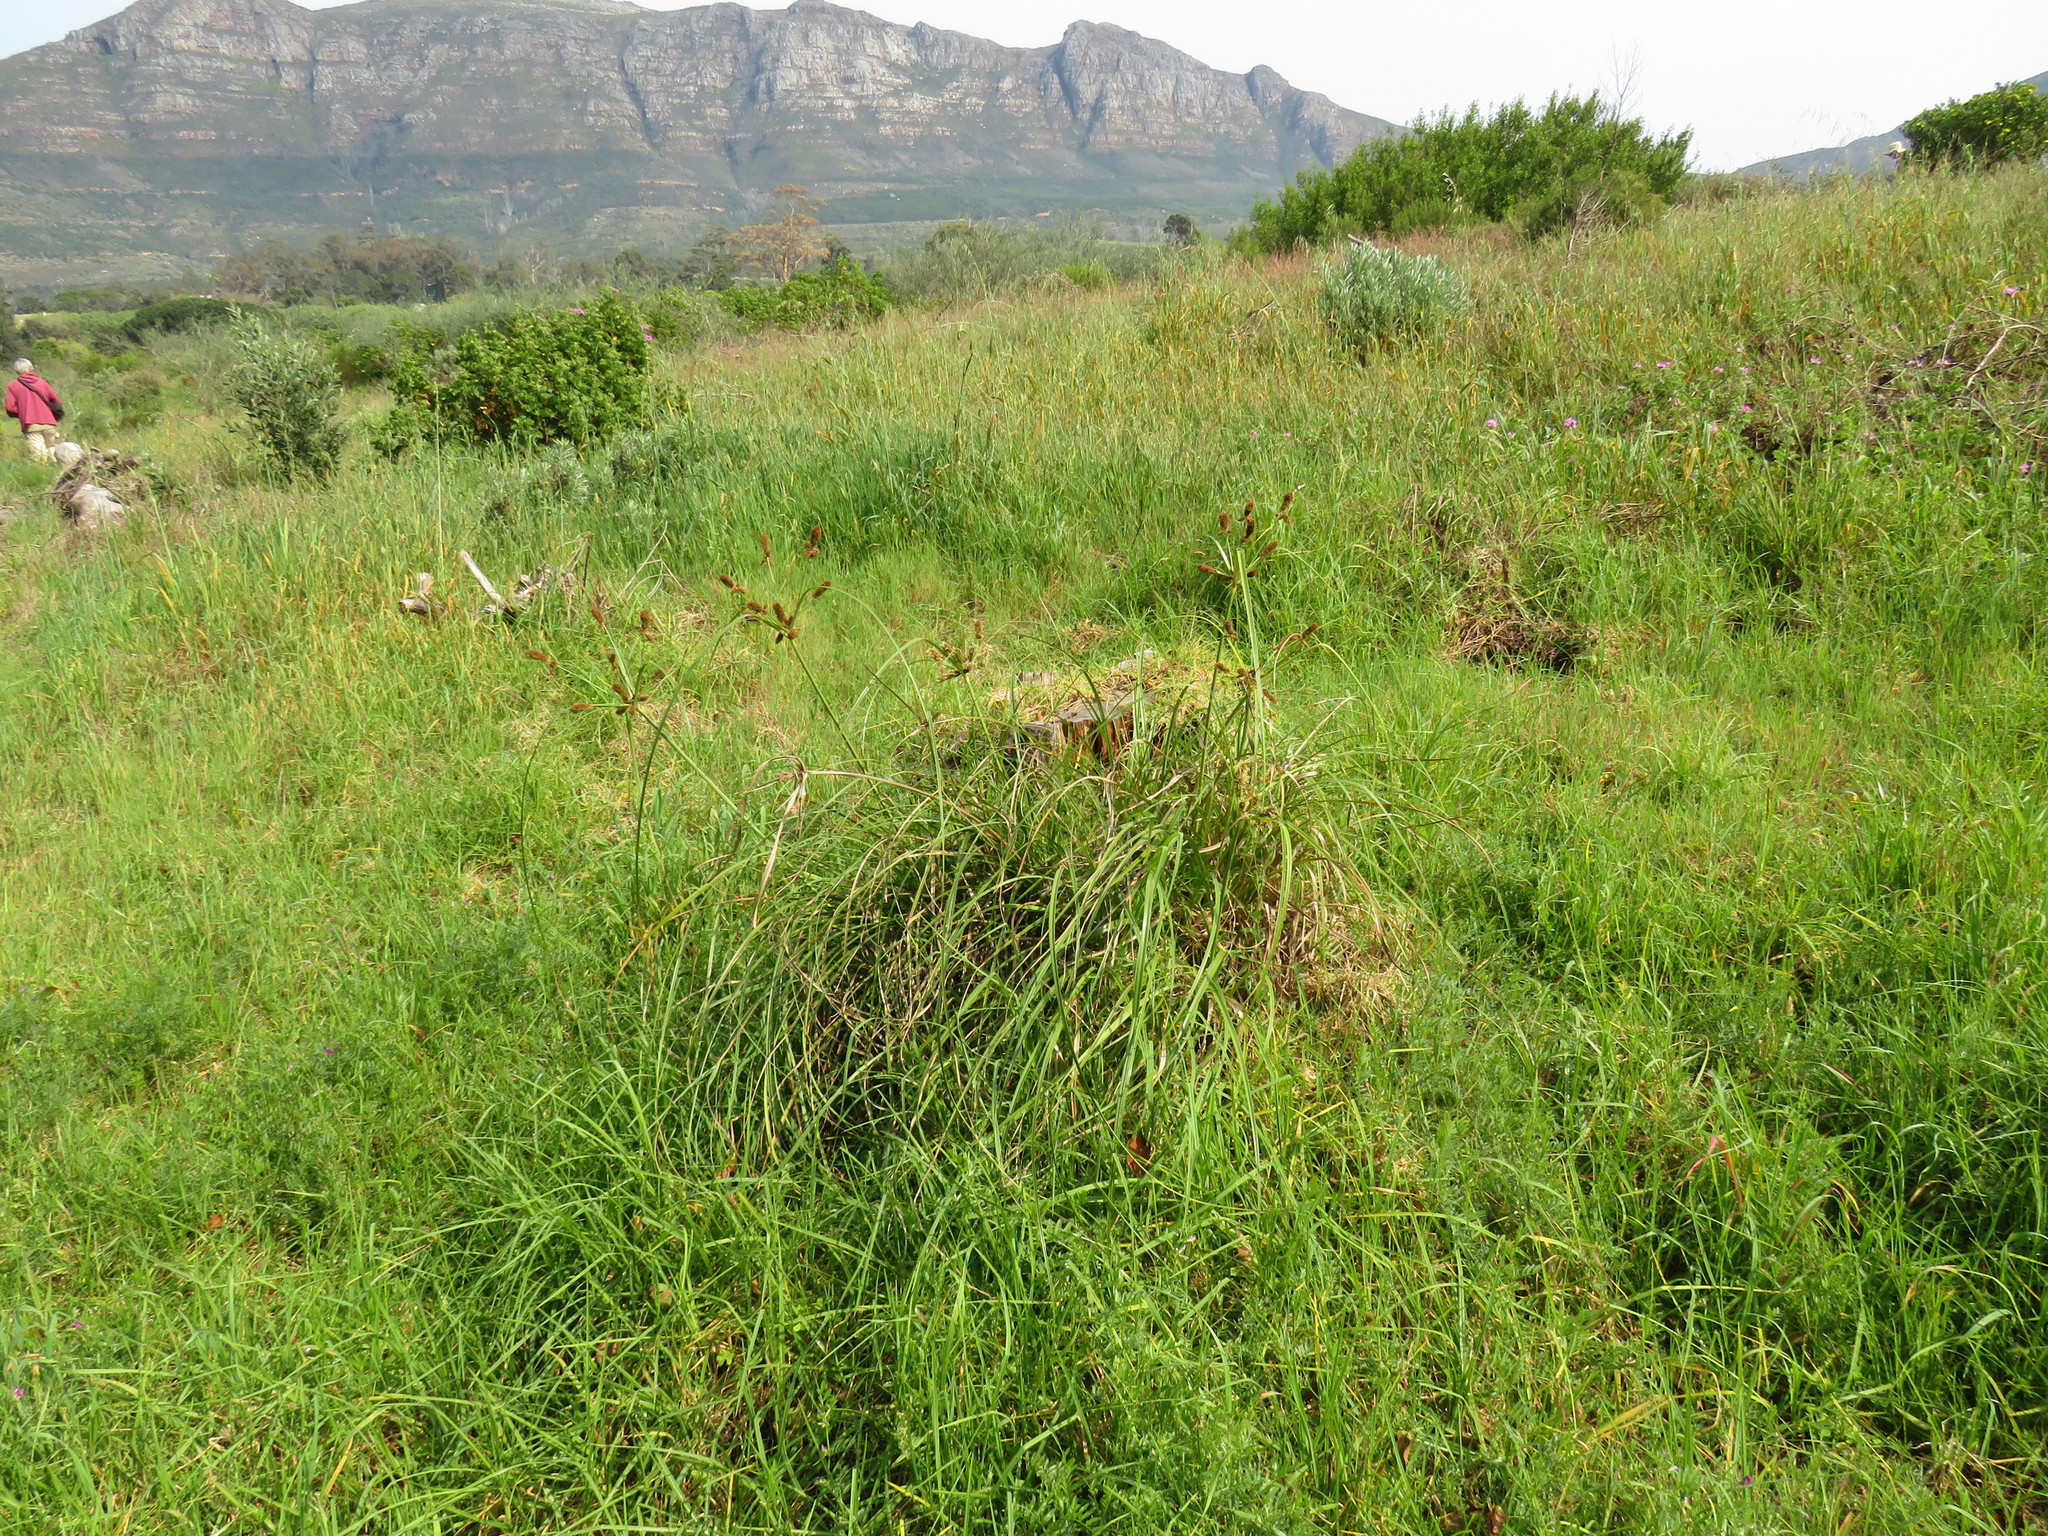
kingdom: Plantae
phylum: Tracheophyta
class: Liliopsida
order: Poales
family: Cyperaceae
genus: Cyperus
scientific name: Cyperus thunbergii
